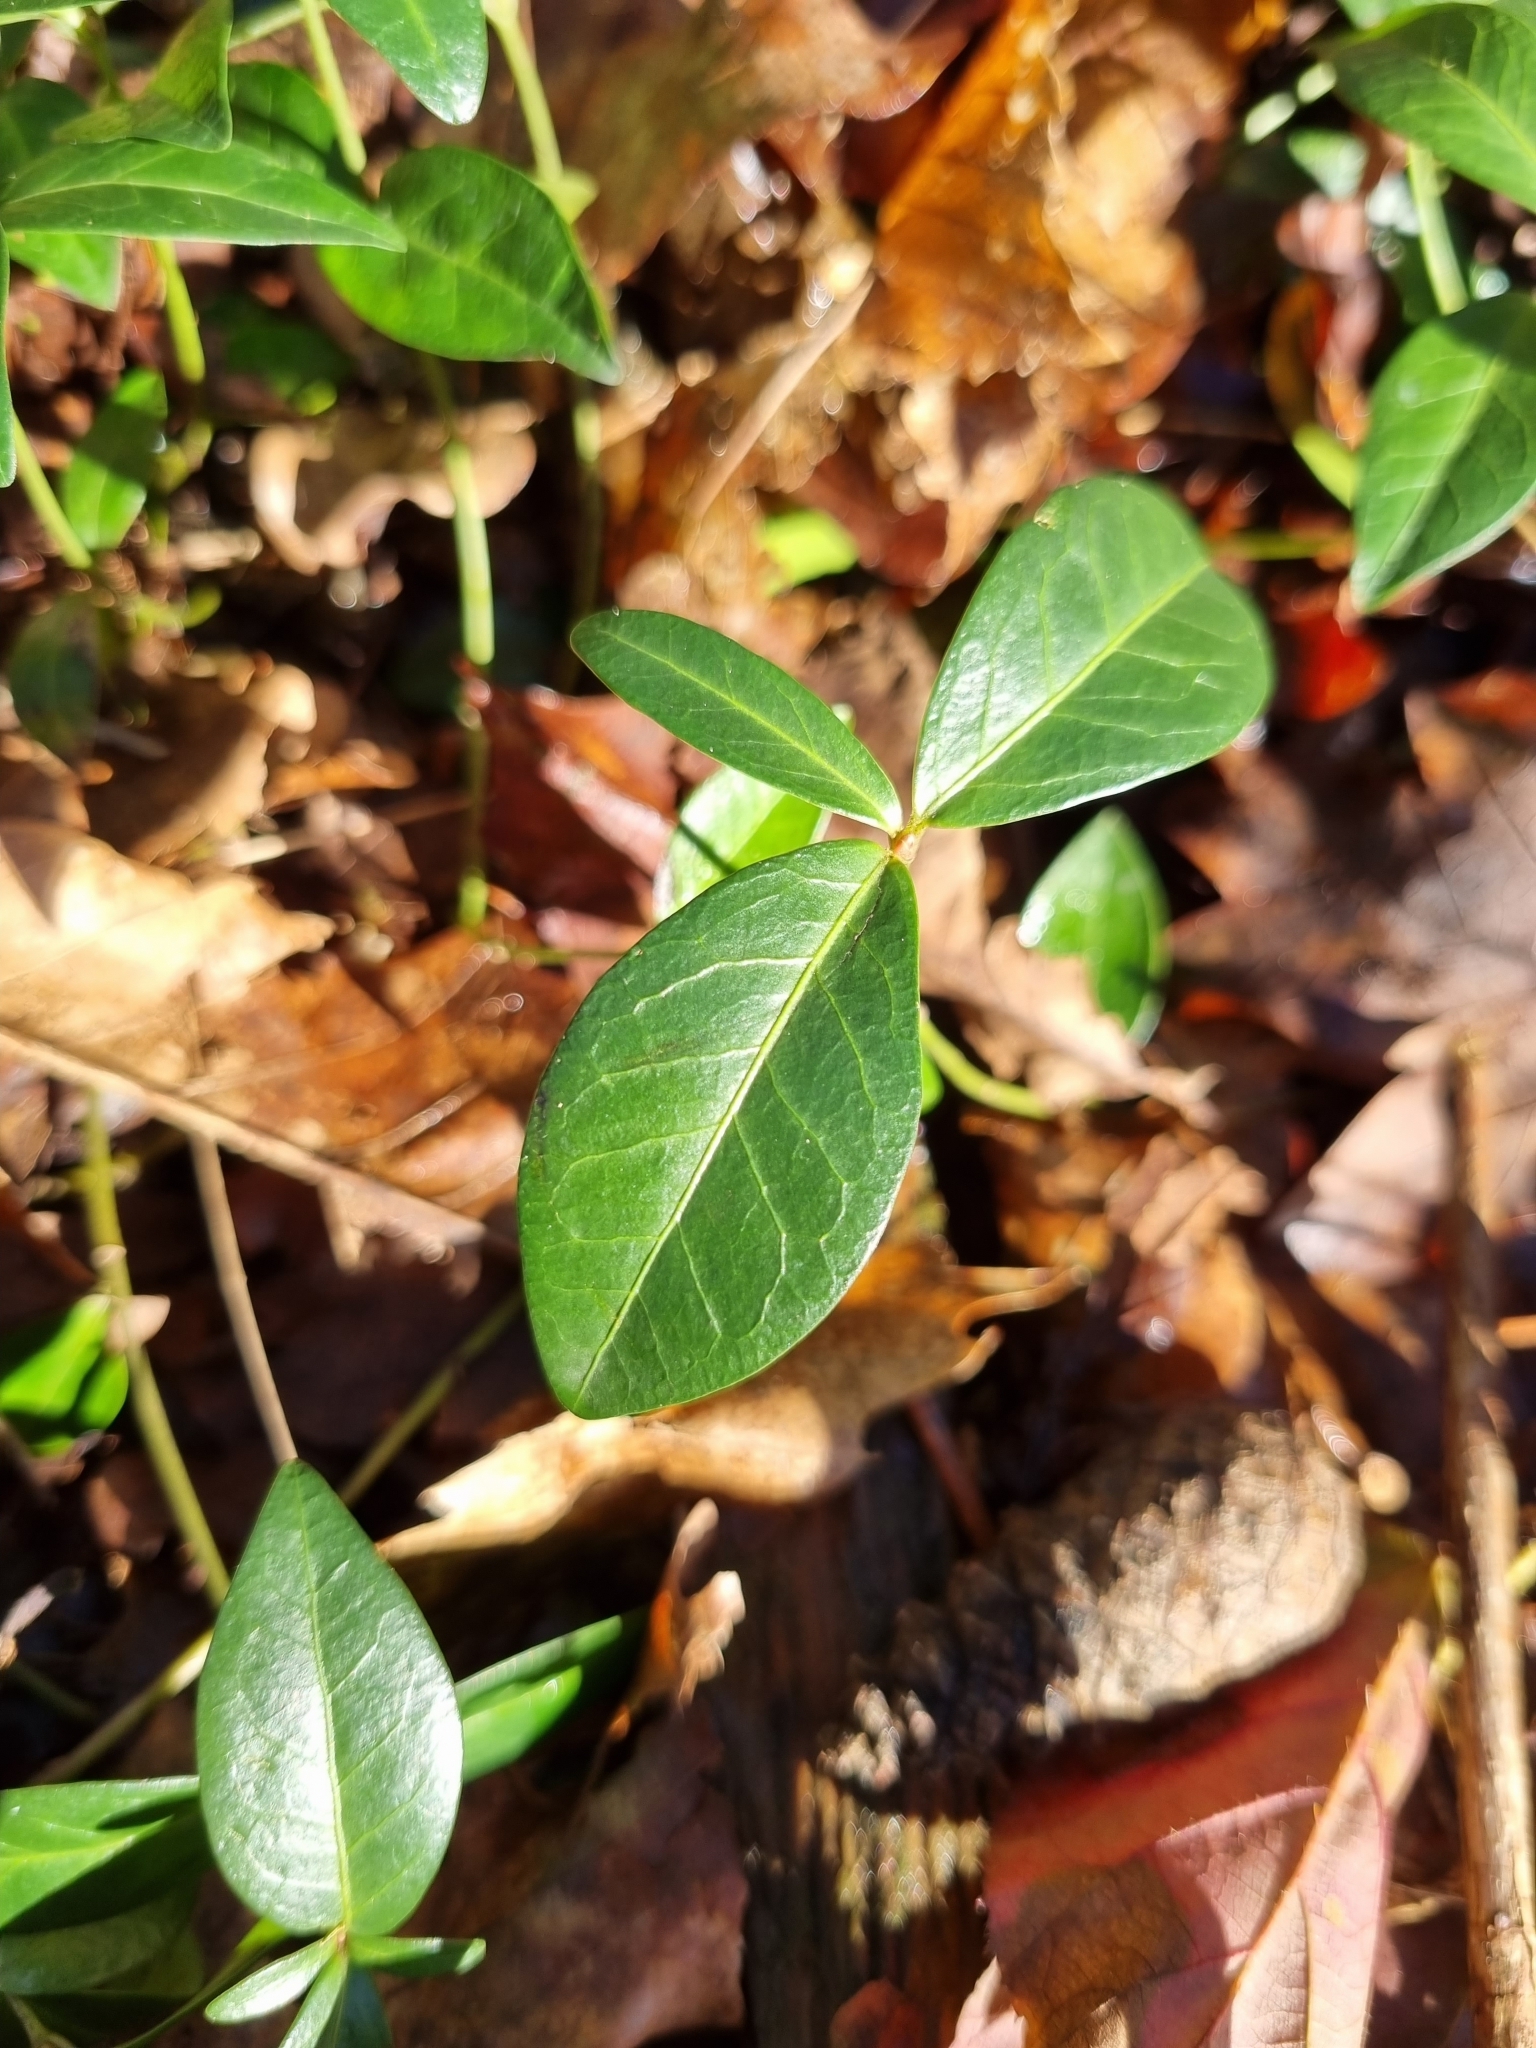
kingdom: Plantae
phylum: Tracheophyta
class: Magnoliopsida
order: Gentianales
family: Apocynaceae
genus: Vinca
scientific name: Vinca minor
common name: Lesser periwinkle
